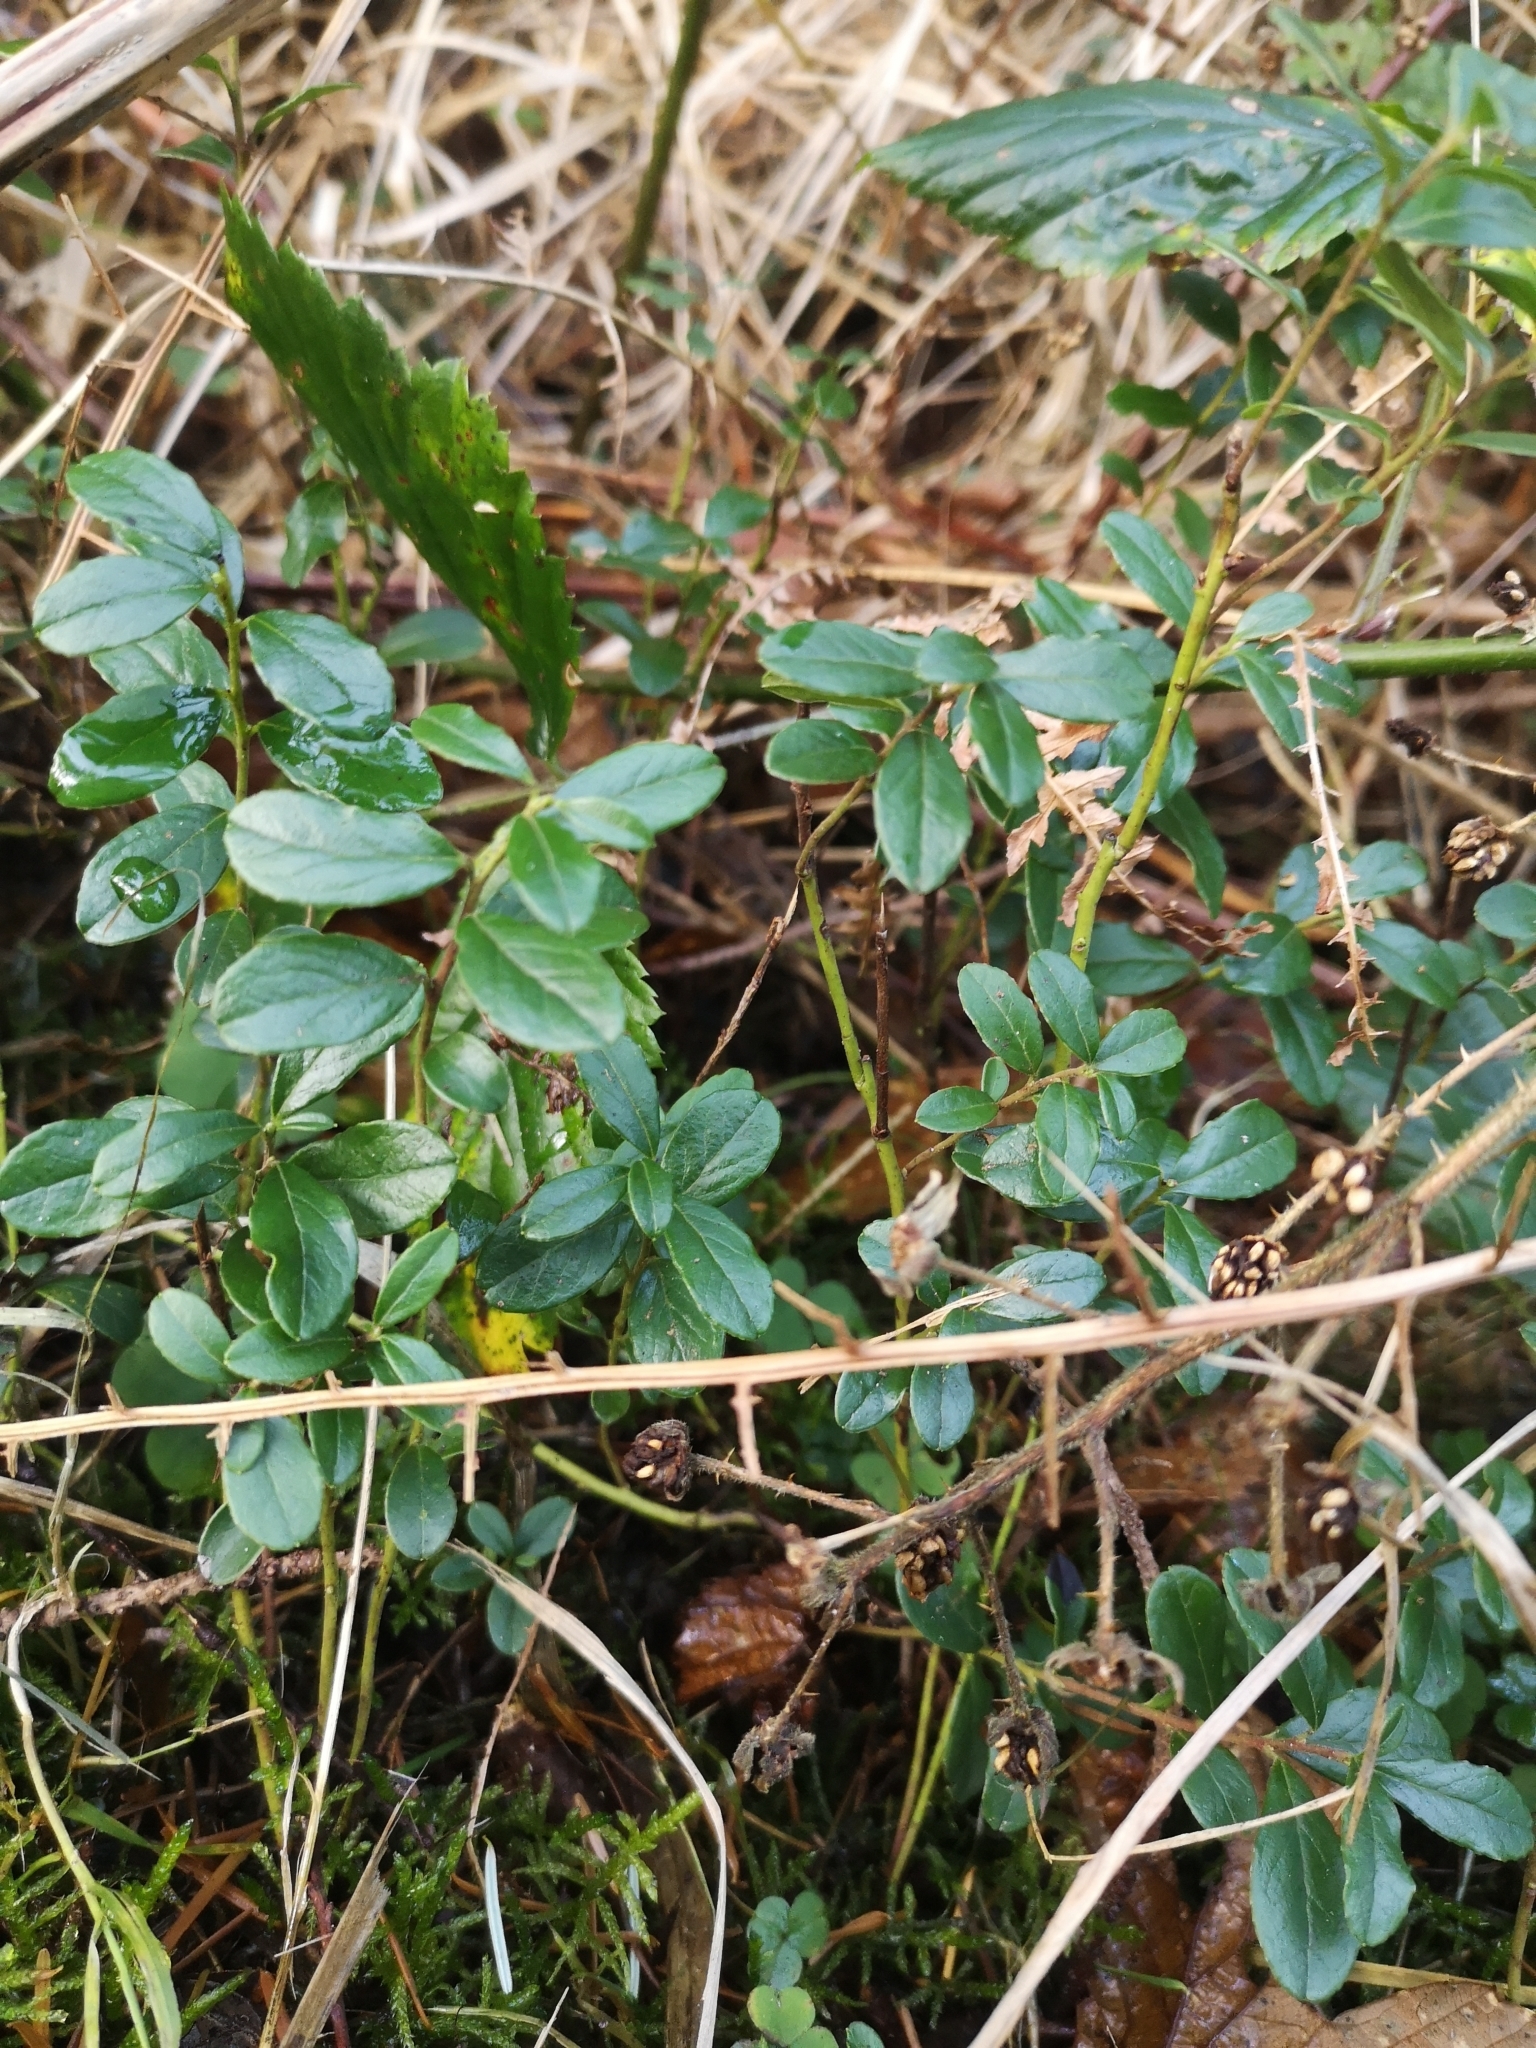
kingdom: Plantae
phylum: Tracheophyta
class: Magnoliopsida
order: Ericales
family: Ericaceae
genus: Vaccinium
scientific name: Vaccinium vitis-idaea
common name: Cowberry
